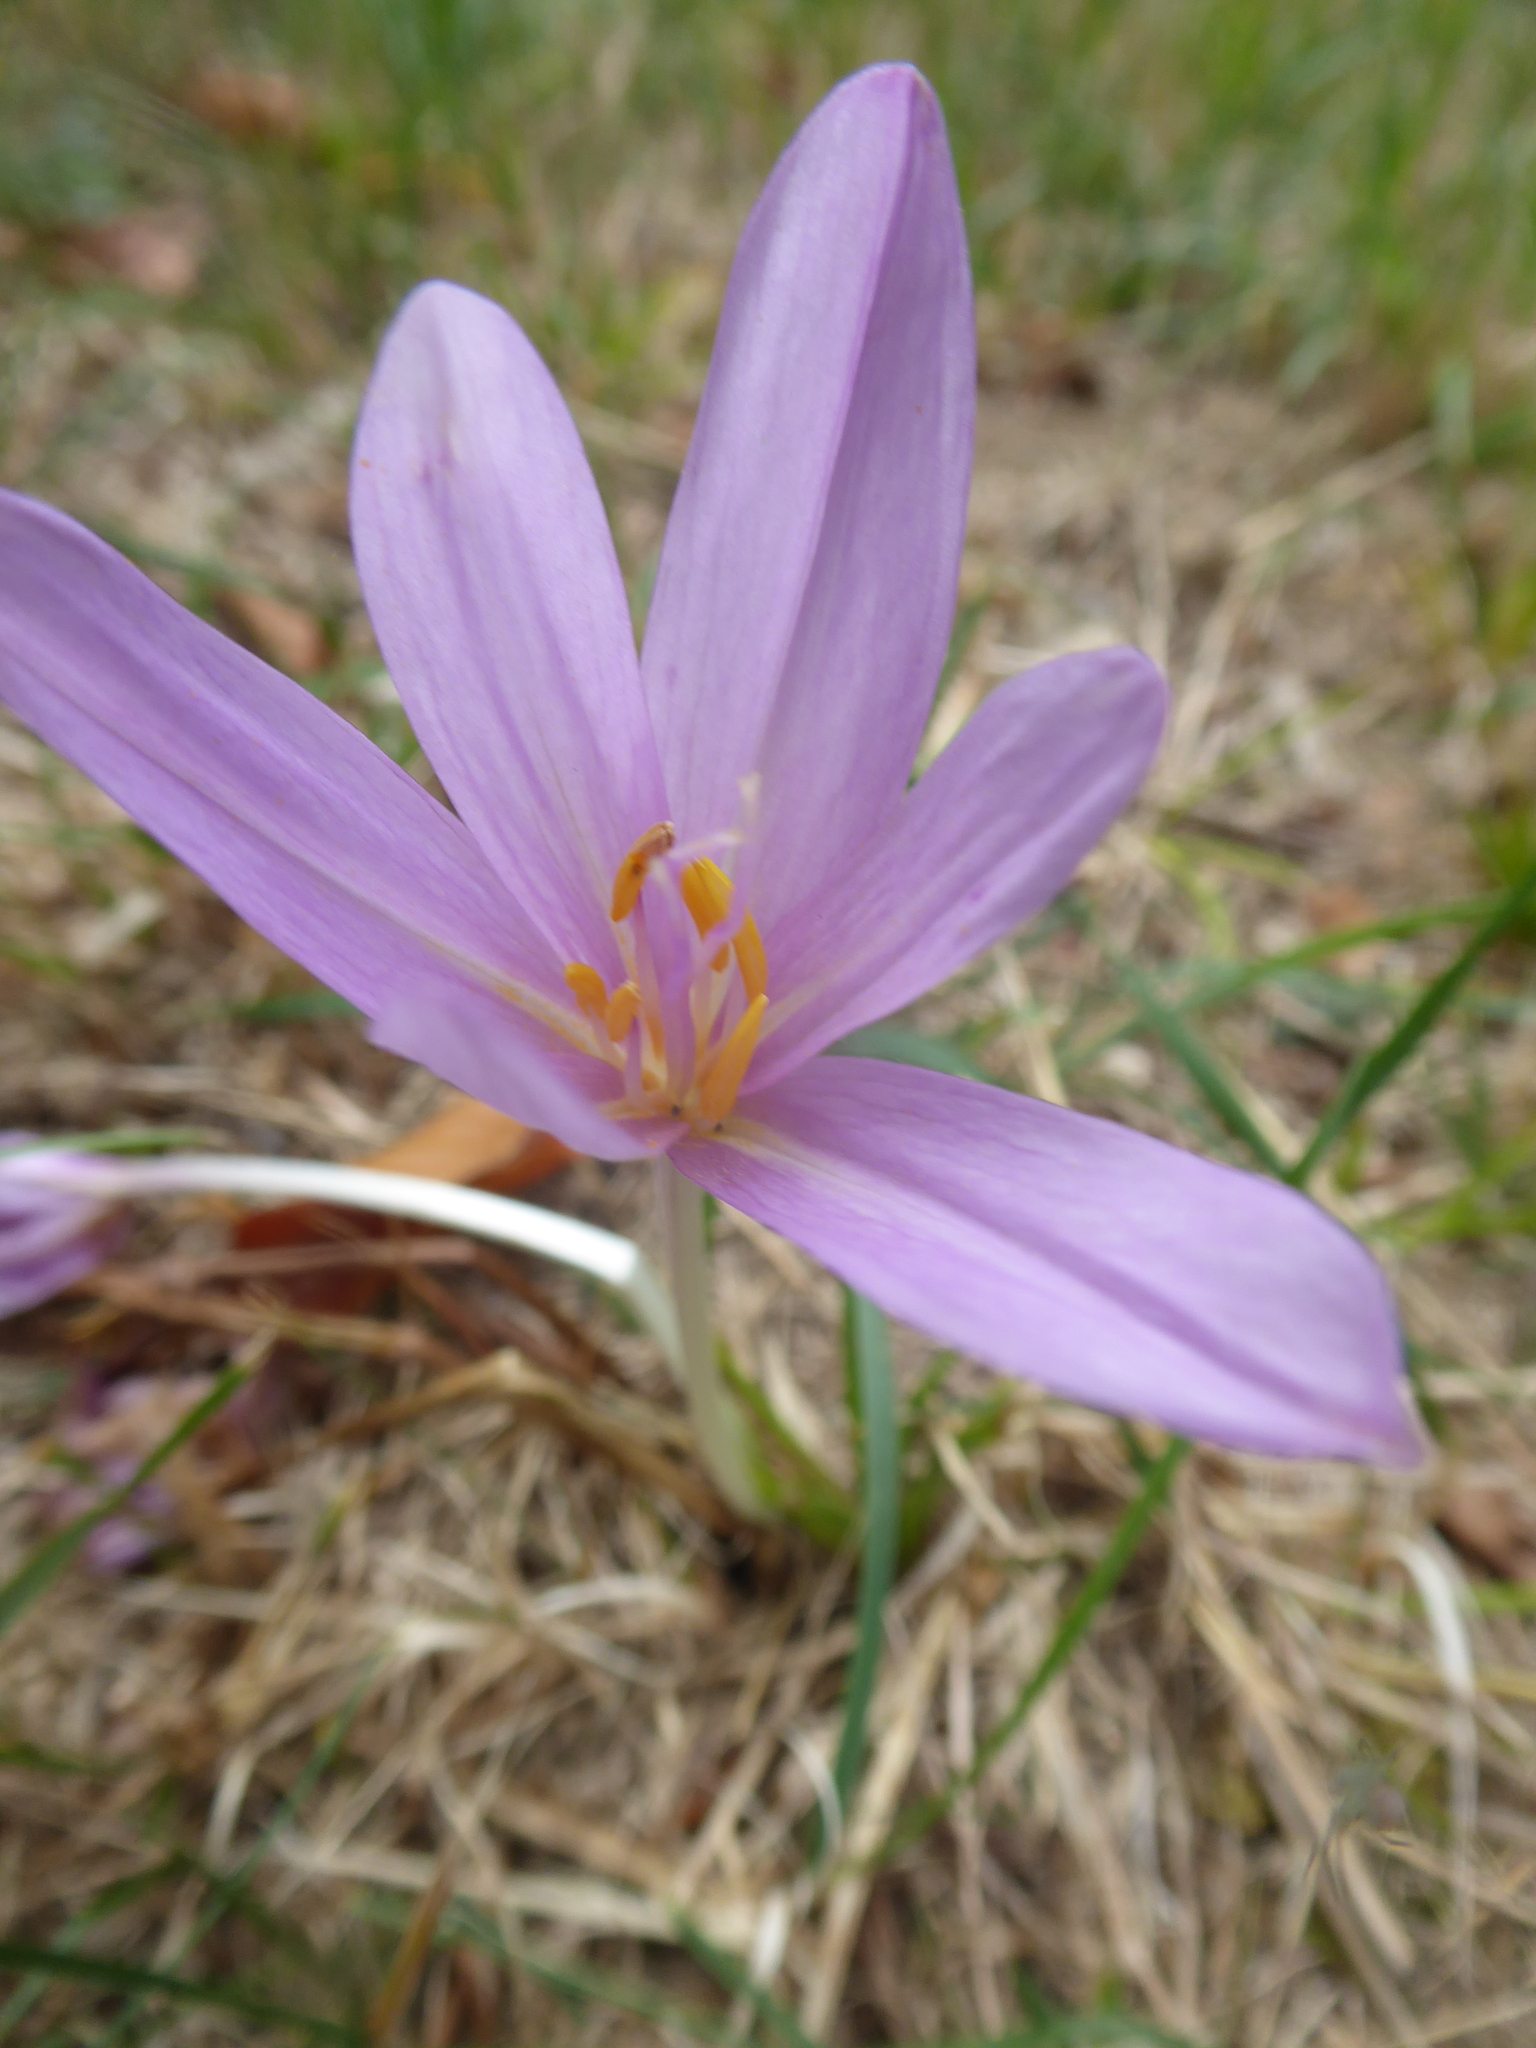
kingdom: Plantae
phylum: Tracheophyta
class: Liliopsida
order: Liliales
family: Colchicaceae
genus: Colchicum
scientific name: Colchicum autumnale
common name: Autumn crocus
